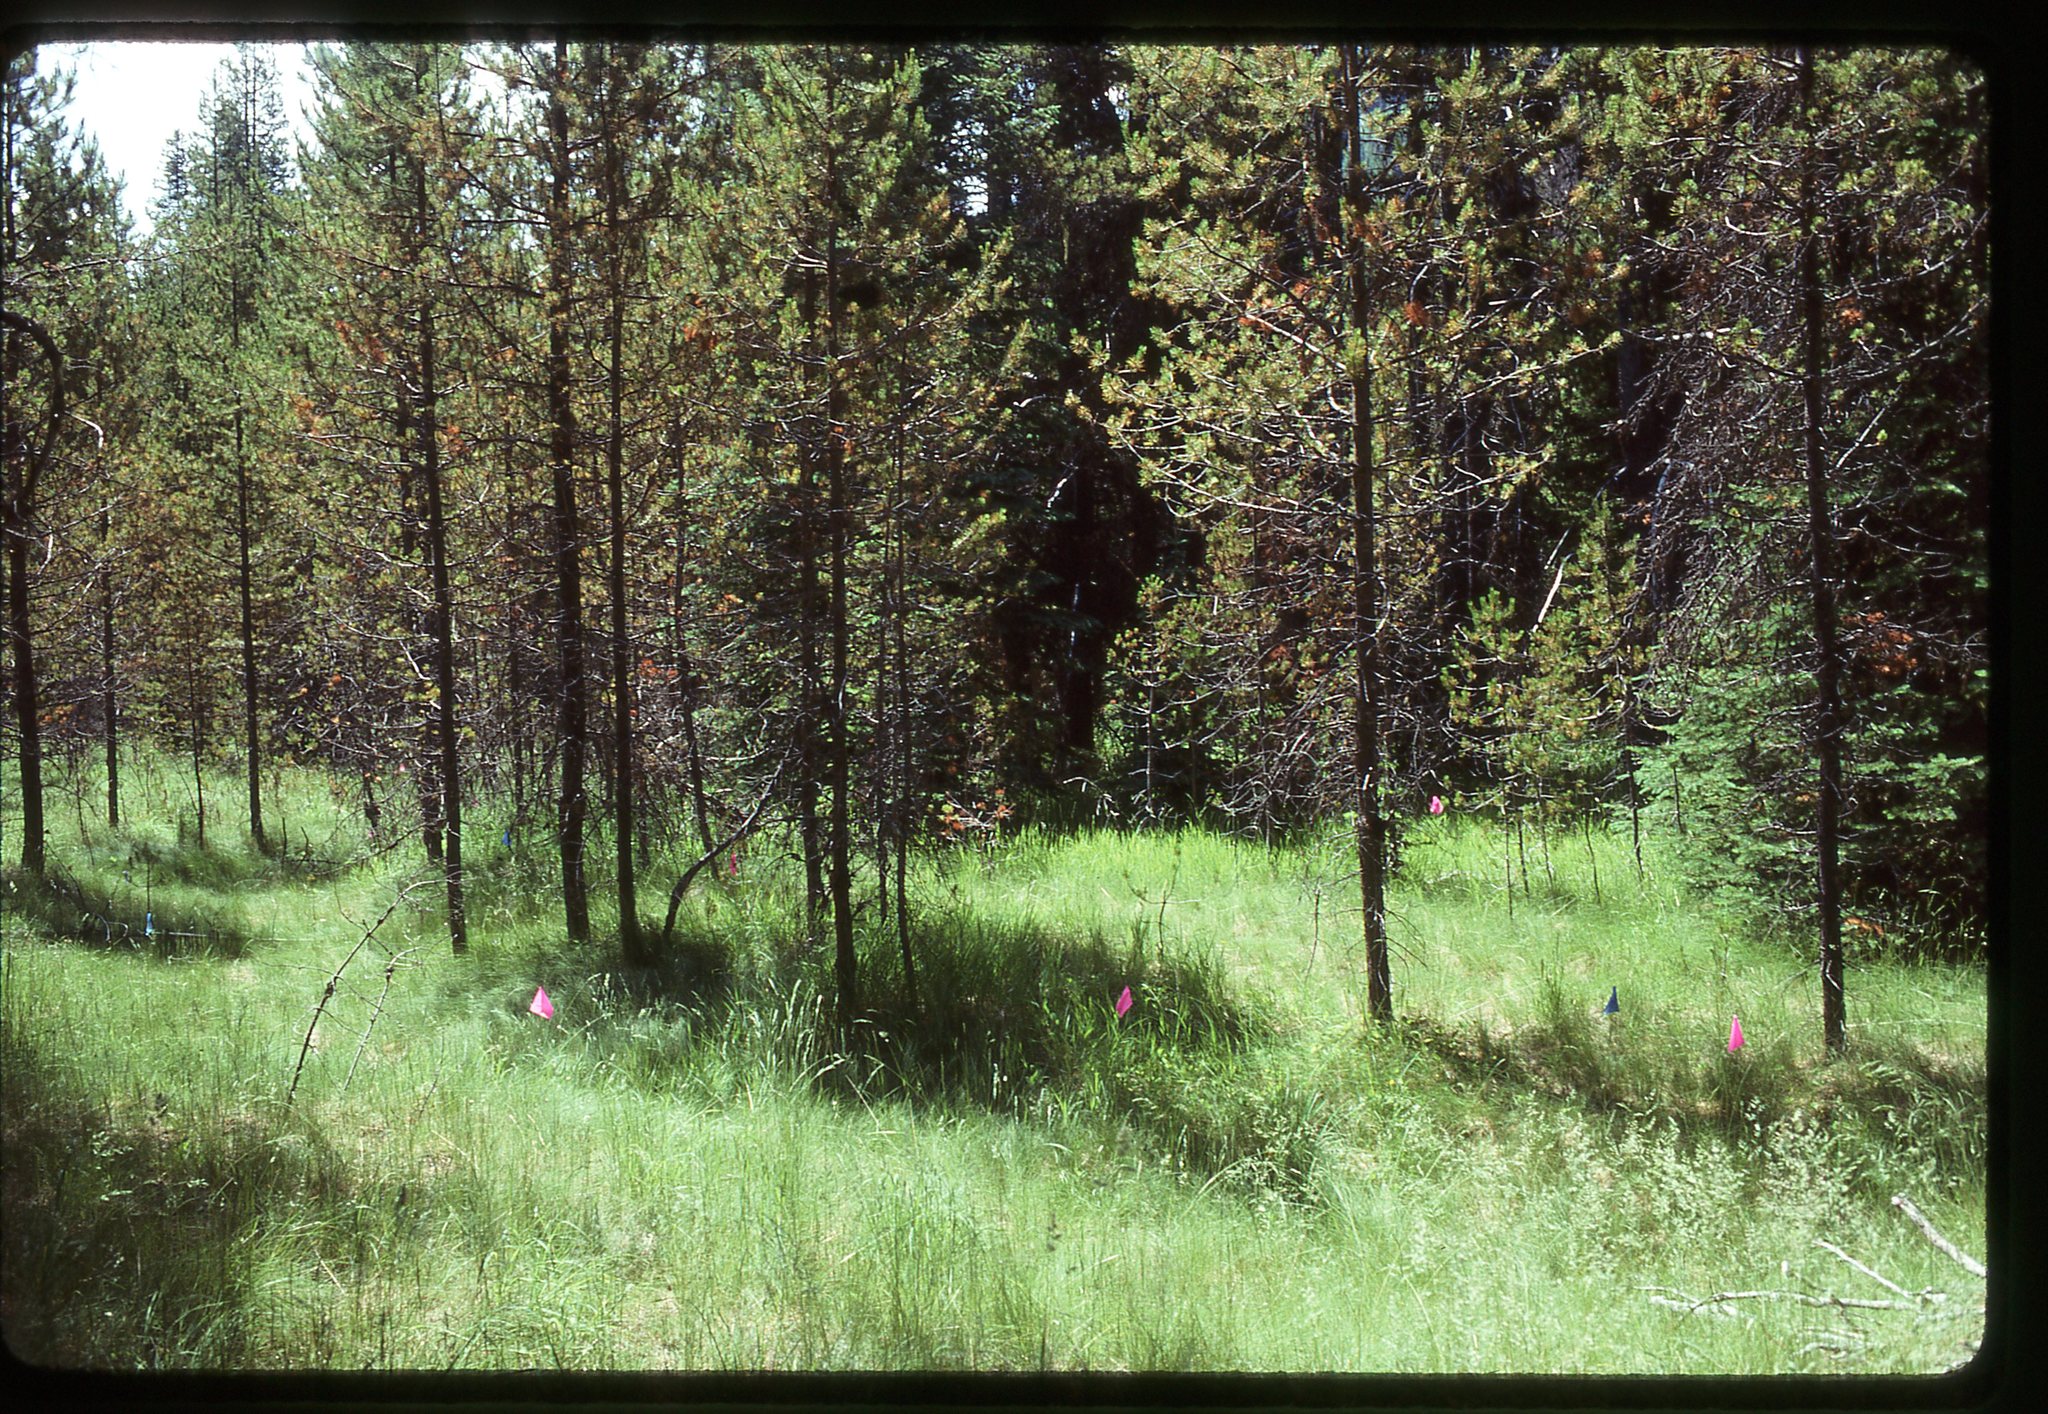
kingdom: Plantae
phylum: Tracheophyta
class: Polypodiopsida
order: Ophioglossales
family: Ophioglossaceae
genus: Botrychium
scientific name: Botrychium pedunculosum
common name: Stalked moonwort
